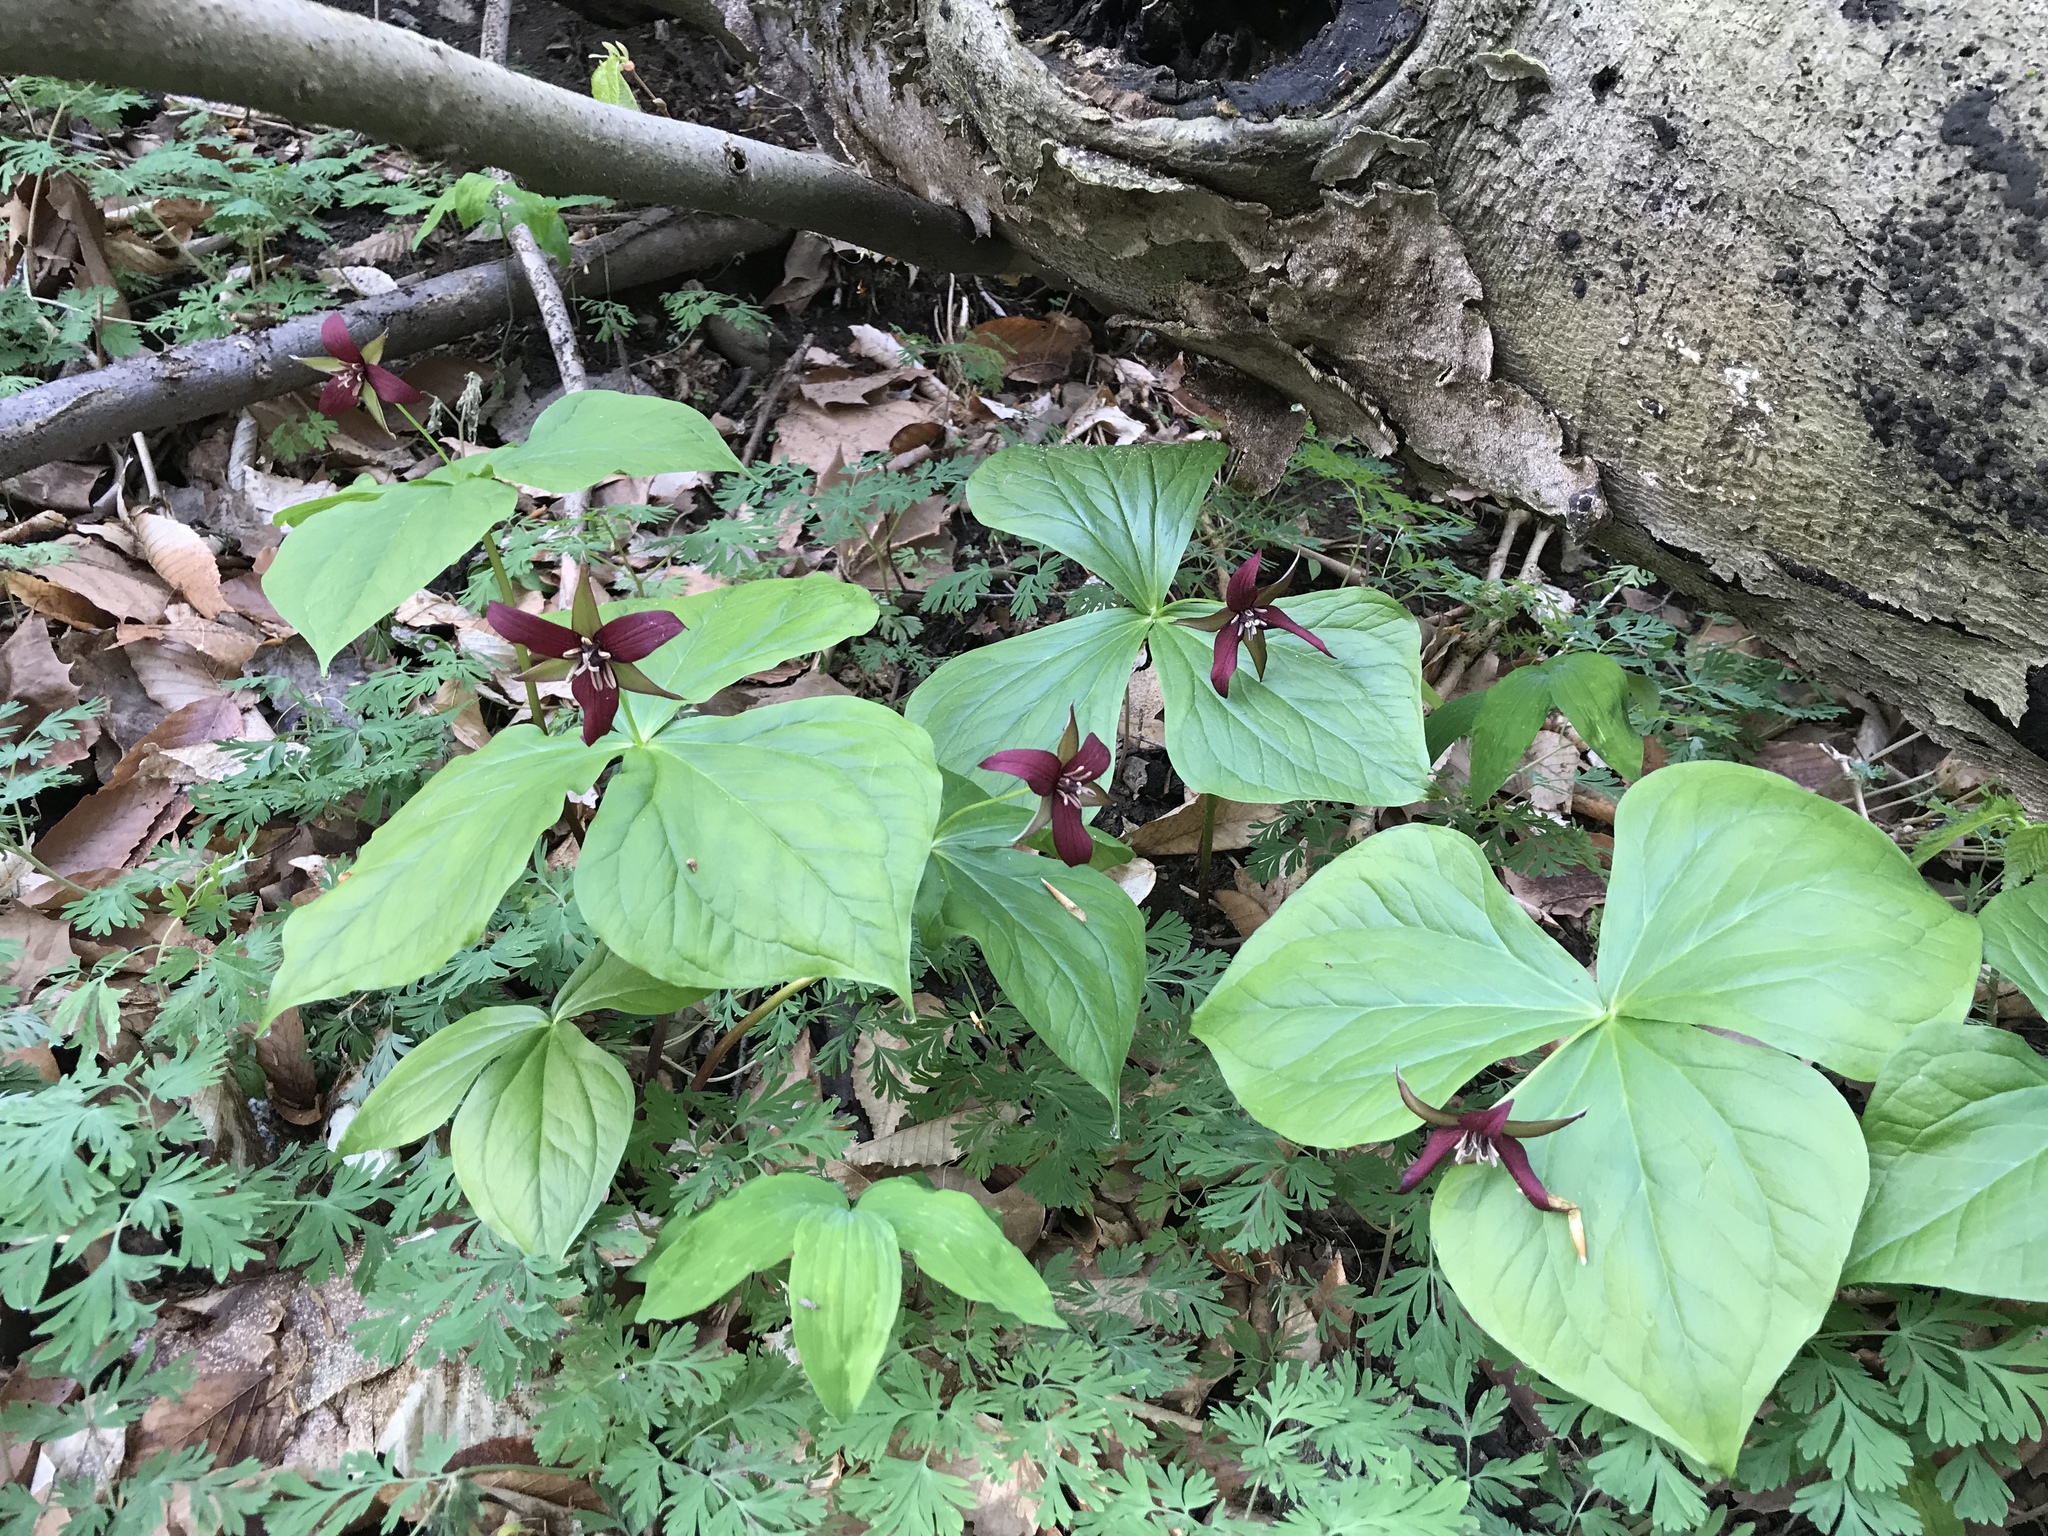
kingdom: Plantae
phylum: Tracheophyta
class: Liliopsida
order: Liliales
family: Melanthiaceae
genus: Trillium
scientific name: Trillium erectum
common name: Purple trillium
